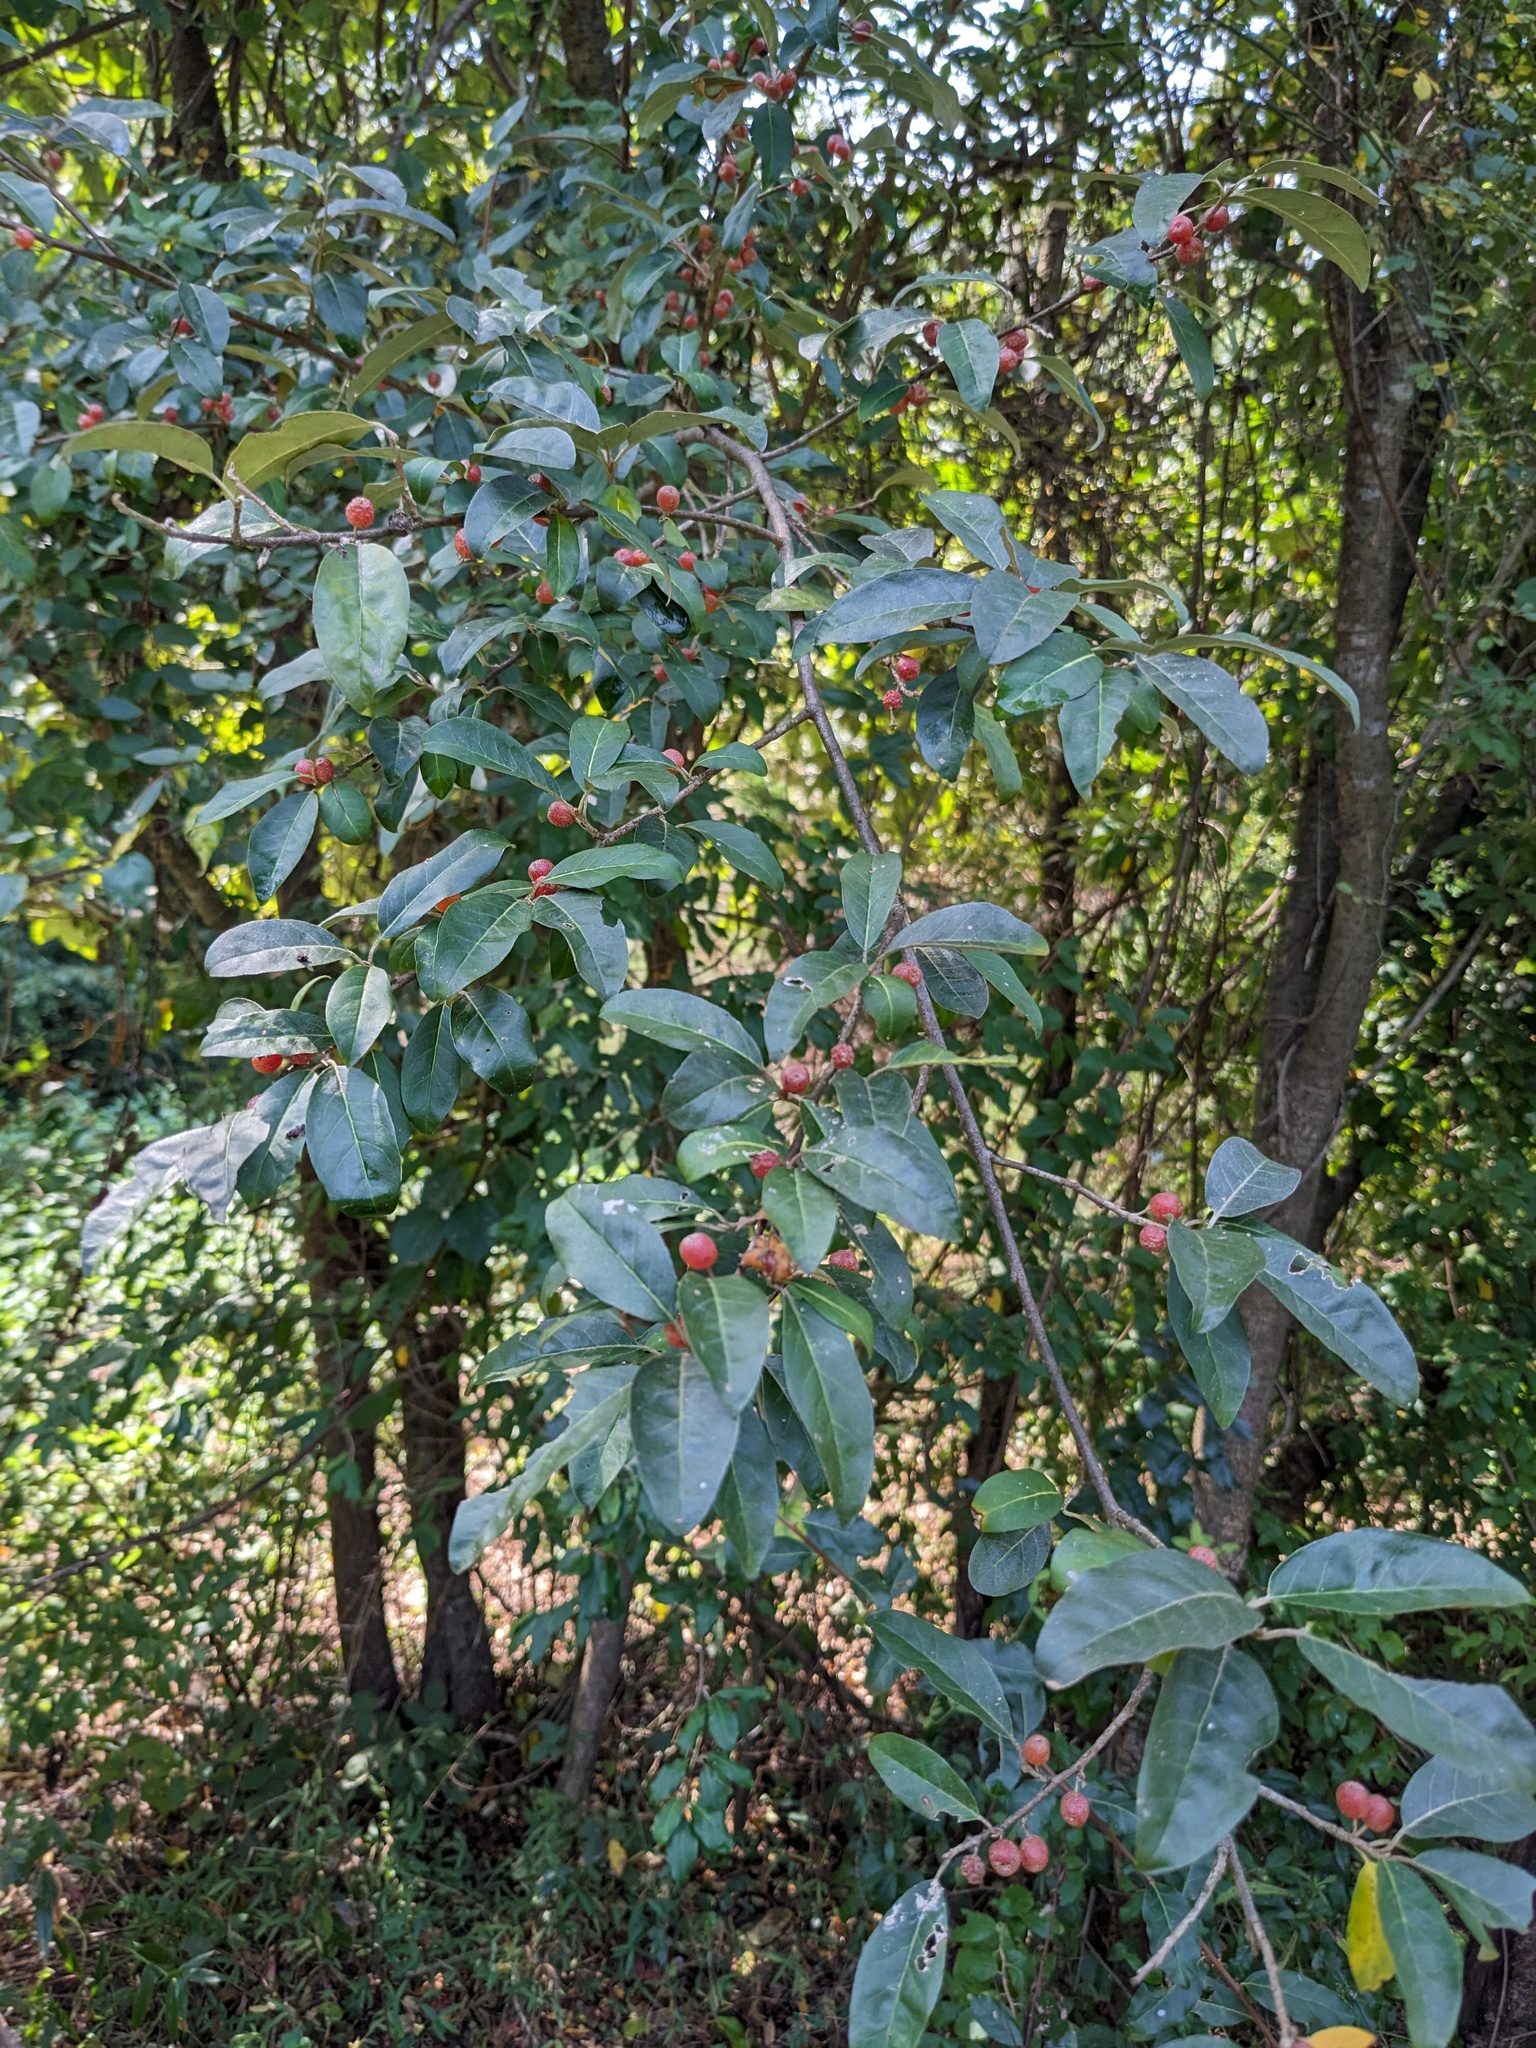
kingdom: Plantae
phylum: Tracheophyta
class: Magnoliopsida
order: Rosales
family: Elaeagnaceae
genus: Elaeagnus
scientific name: Elaeagnus umbellata
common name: Autumn olive
